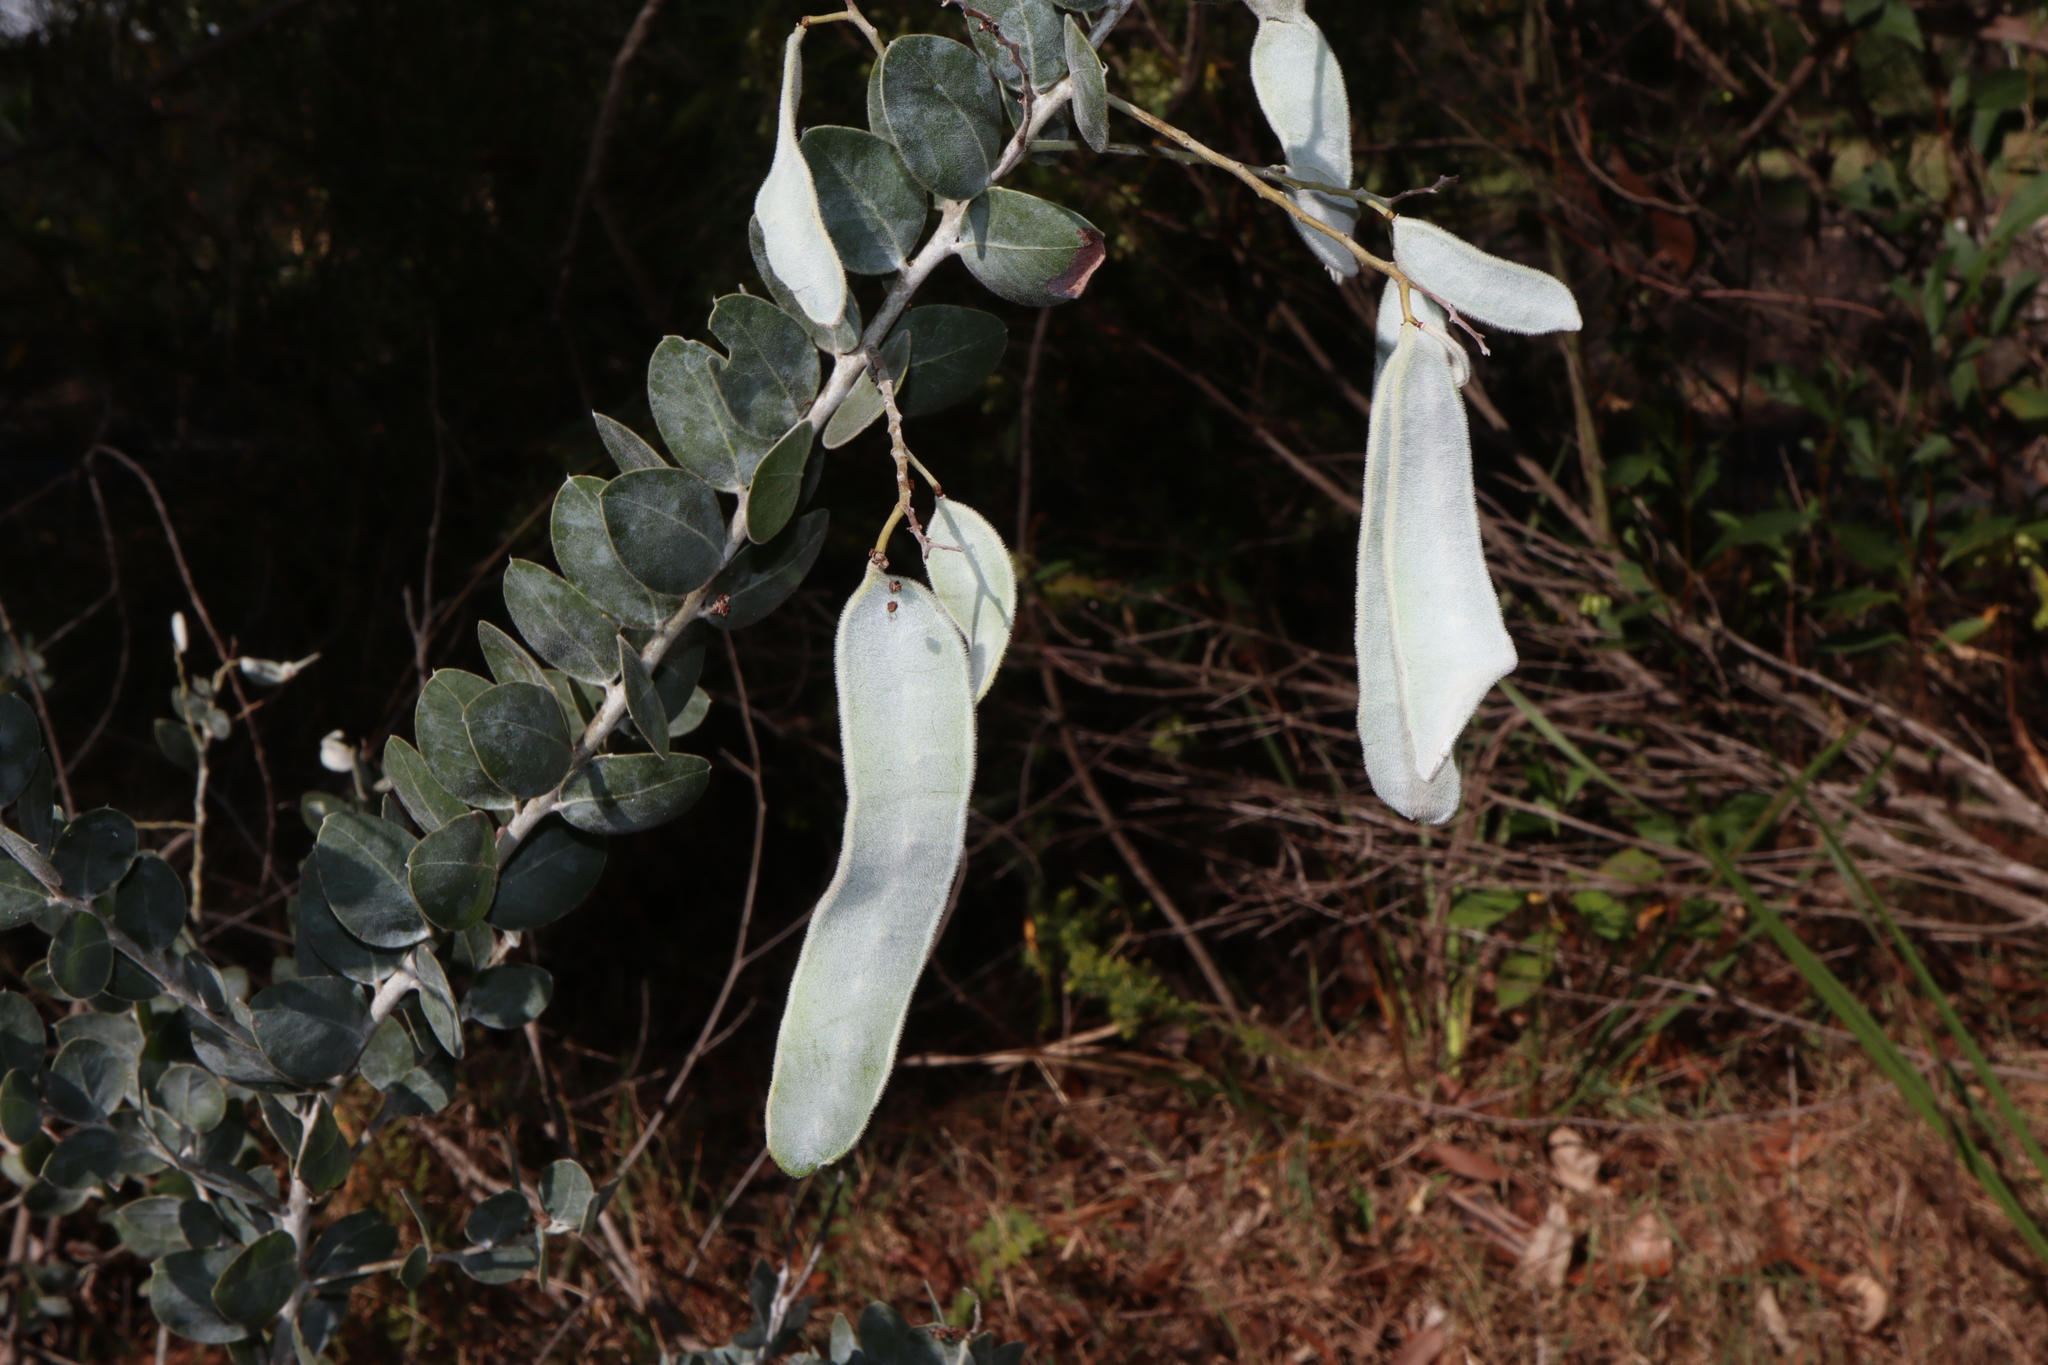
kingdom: Plantae
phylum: Tracheophyta
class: Magnoliopsida
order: Fabales
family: Fabaceae
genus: Acacia
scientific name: Acacia podalyriifolia
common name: Pearl wattle
